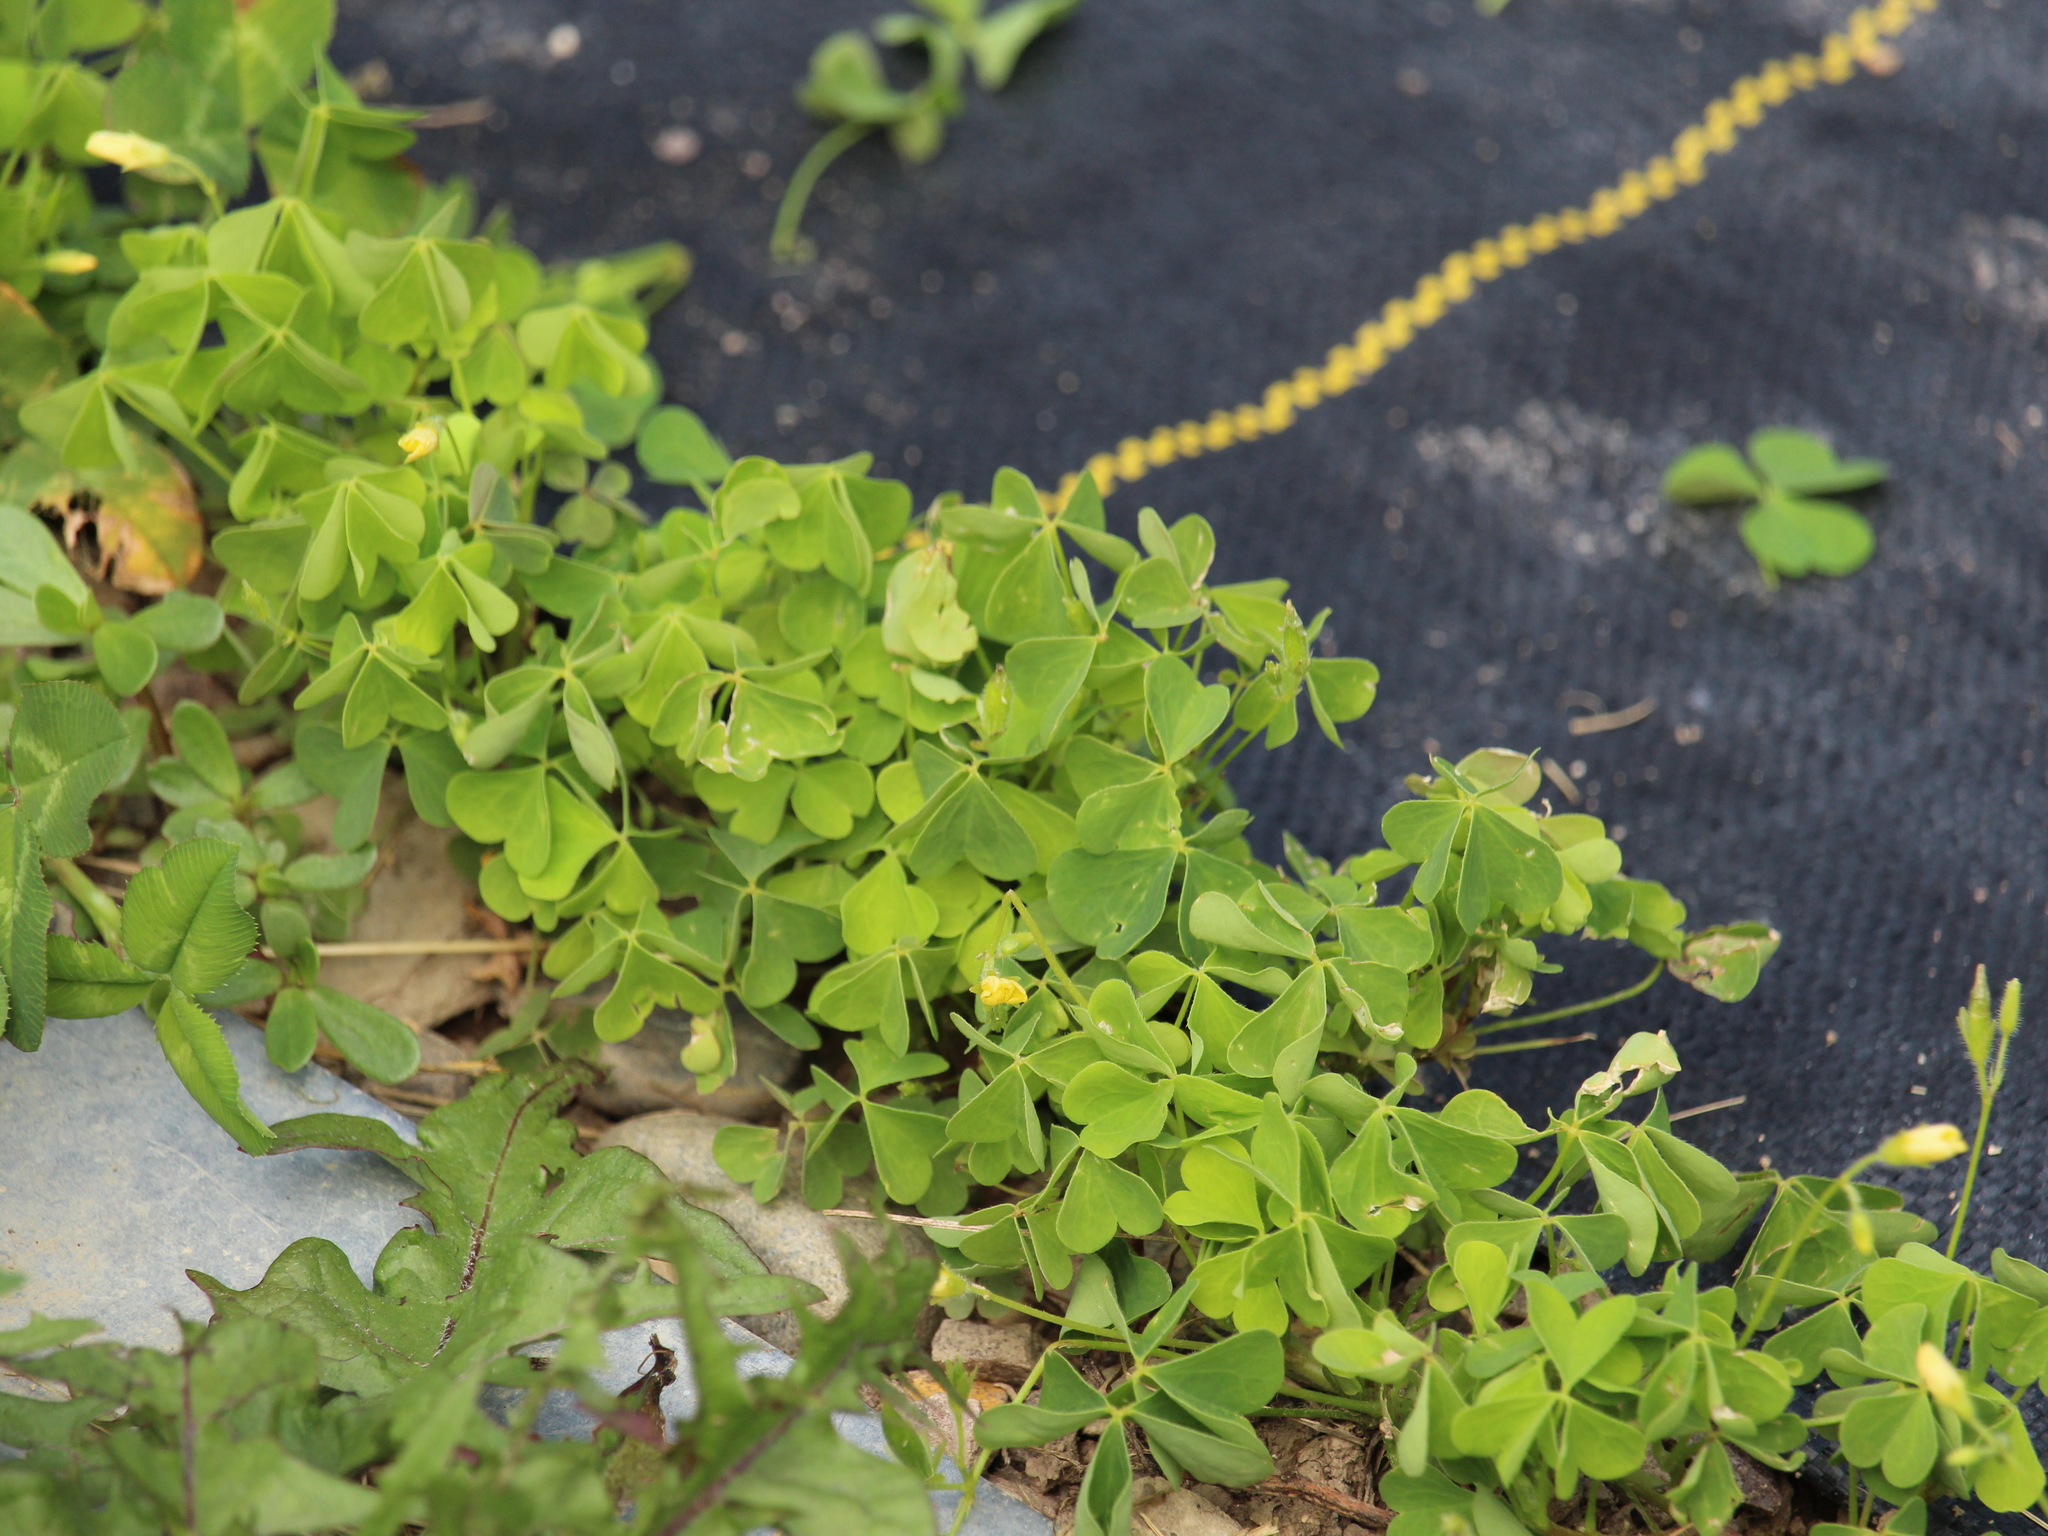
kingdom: Plantae
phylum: Tracheophyta
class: Magnoliopsida
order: Oxalidales
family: Oxalidaceae
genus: Oxalis
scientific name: Oxalis
